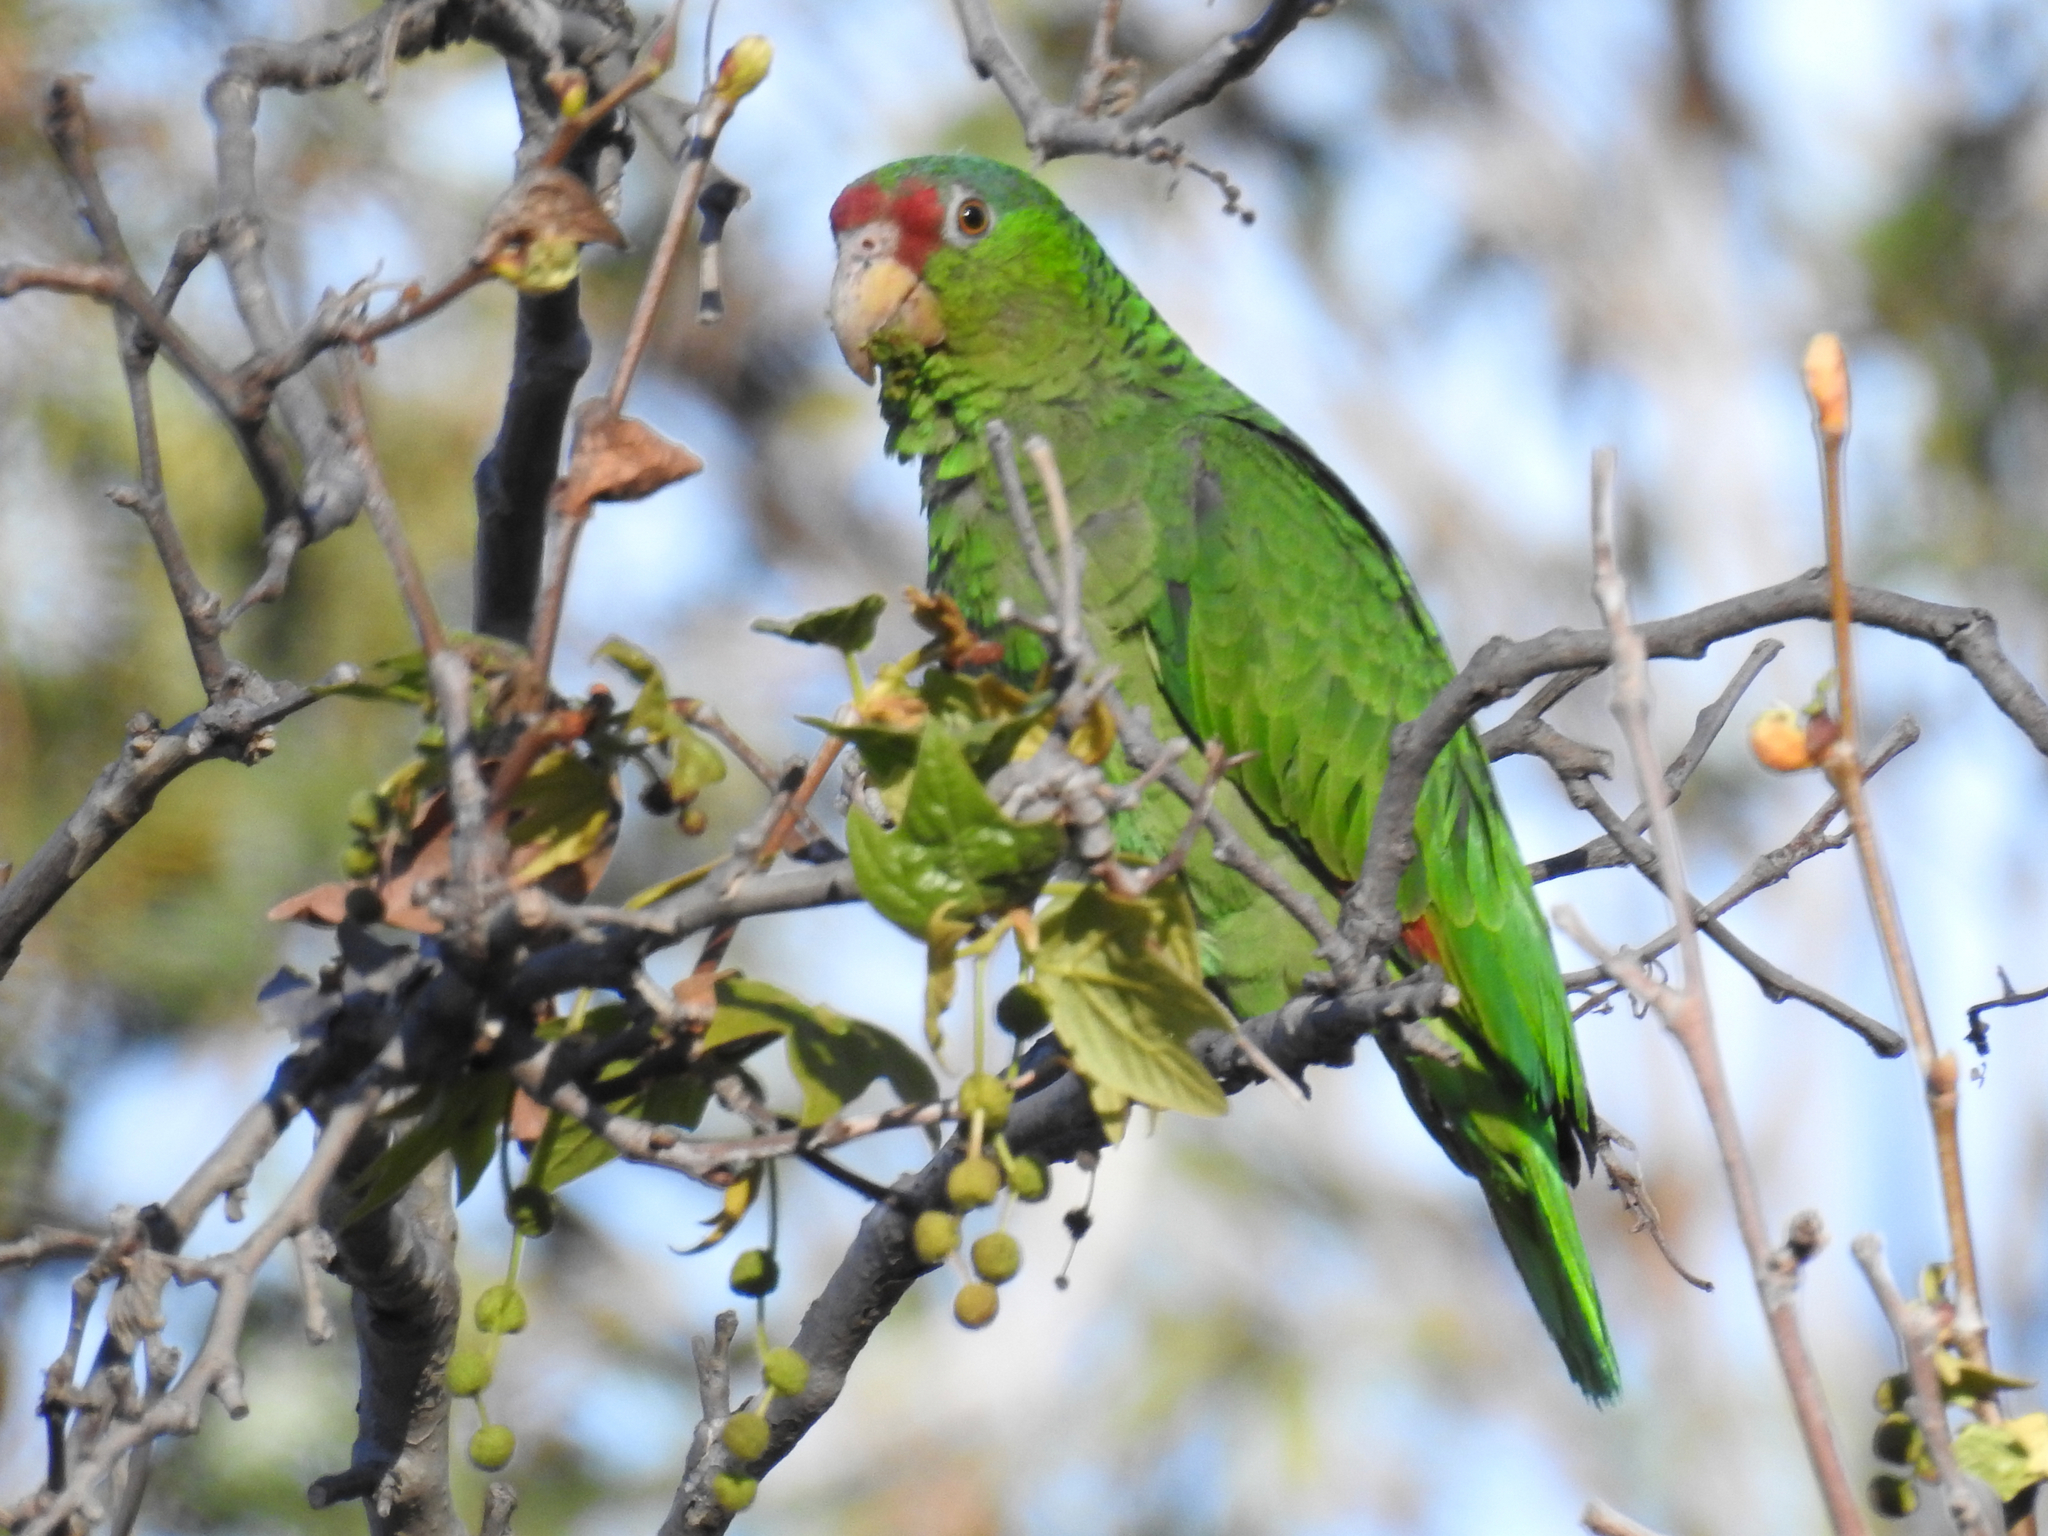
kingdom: Animalia
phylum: Chordata
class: Aves
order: Psittaciformes
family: Psittacidae
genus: Amazona
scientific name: Amazona viridigenalis
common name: Red-crowned amazon
